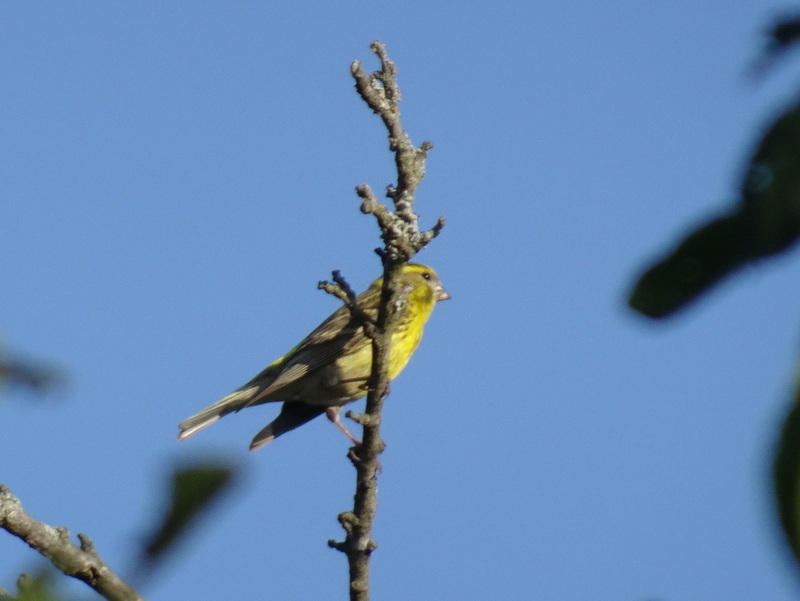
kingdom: Animalia
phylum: Chordata
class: Aves
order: Passeriformes
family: Fringillidae
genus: Serinus
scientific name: Serinus serinus
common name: European serin
